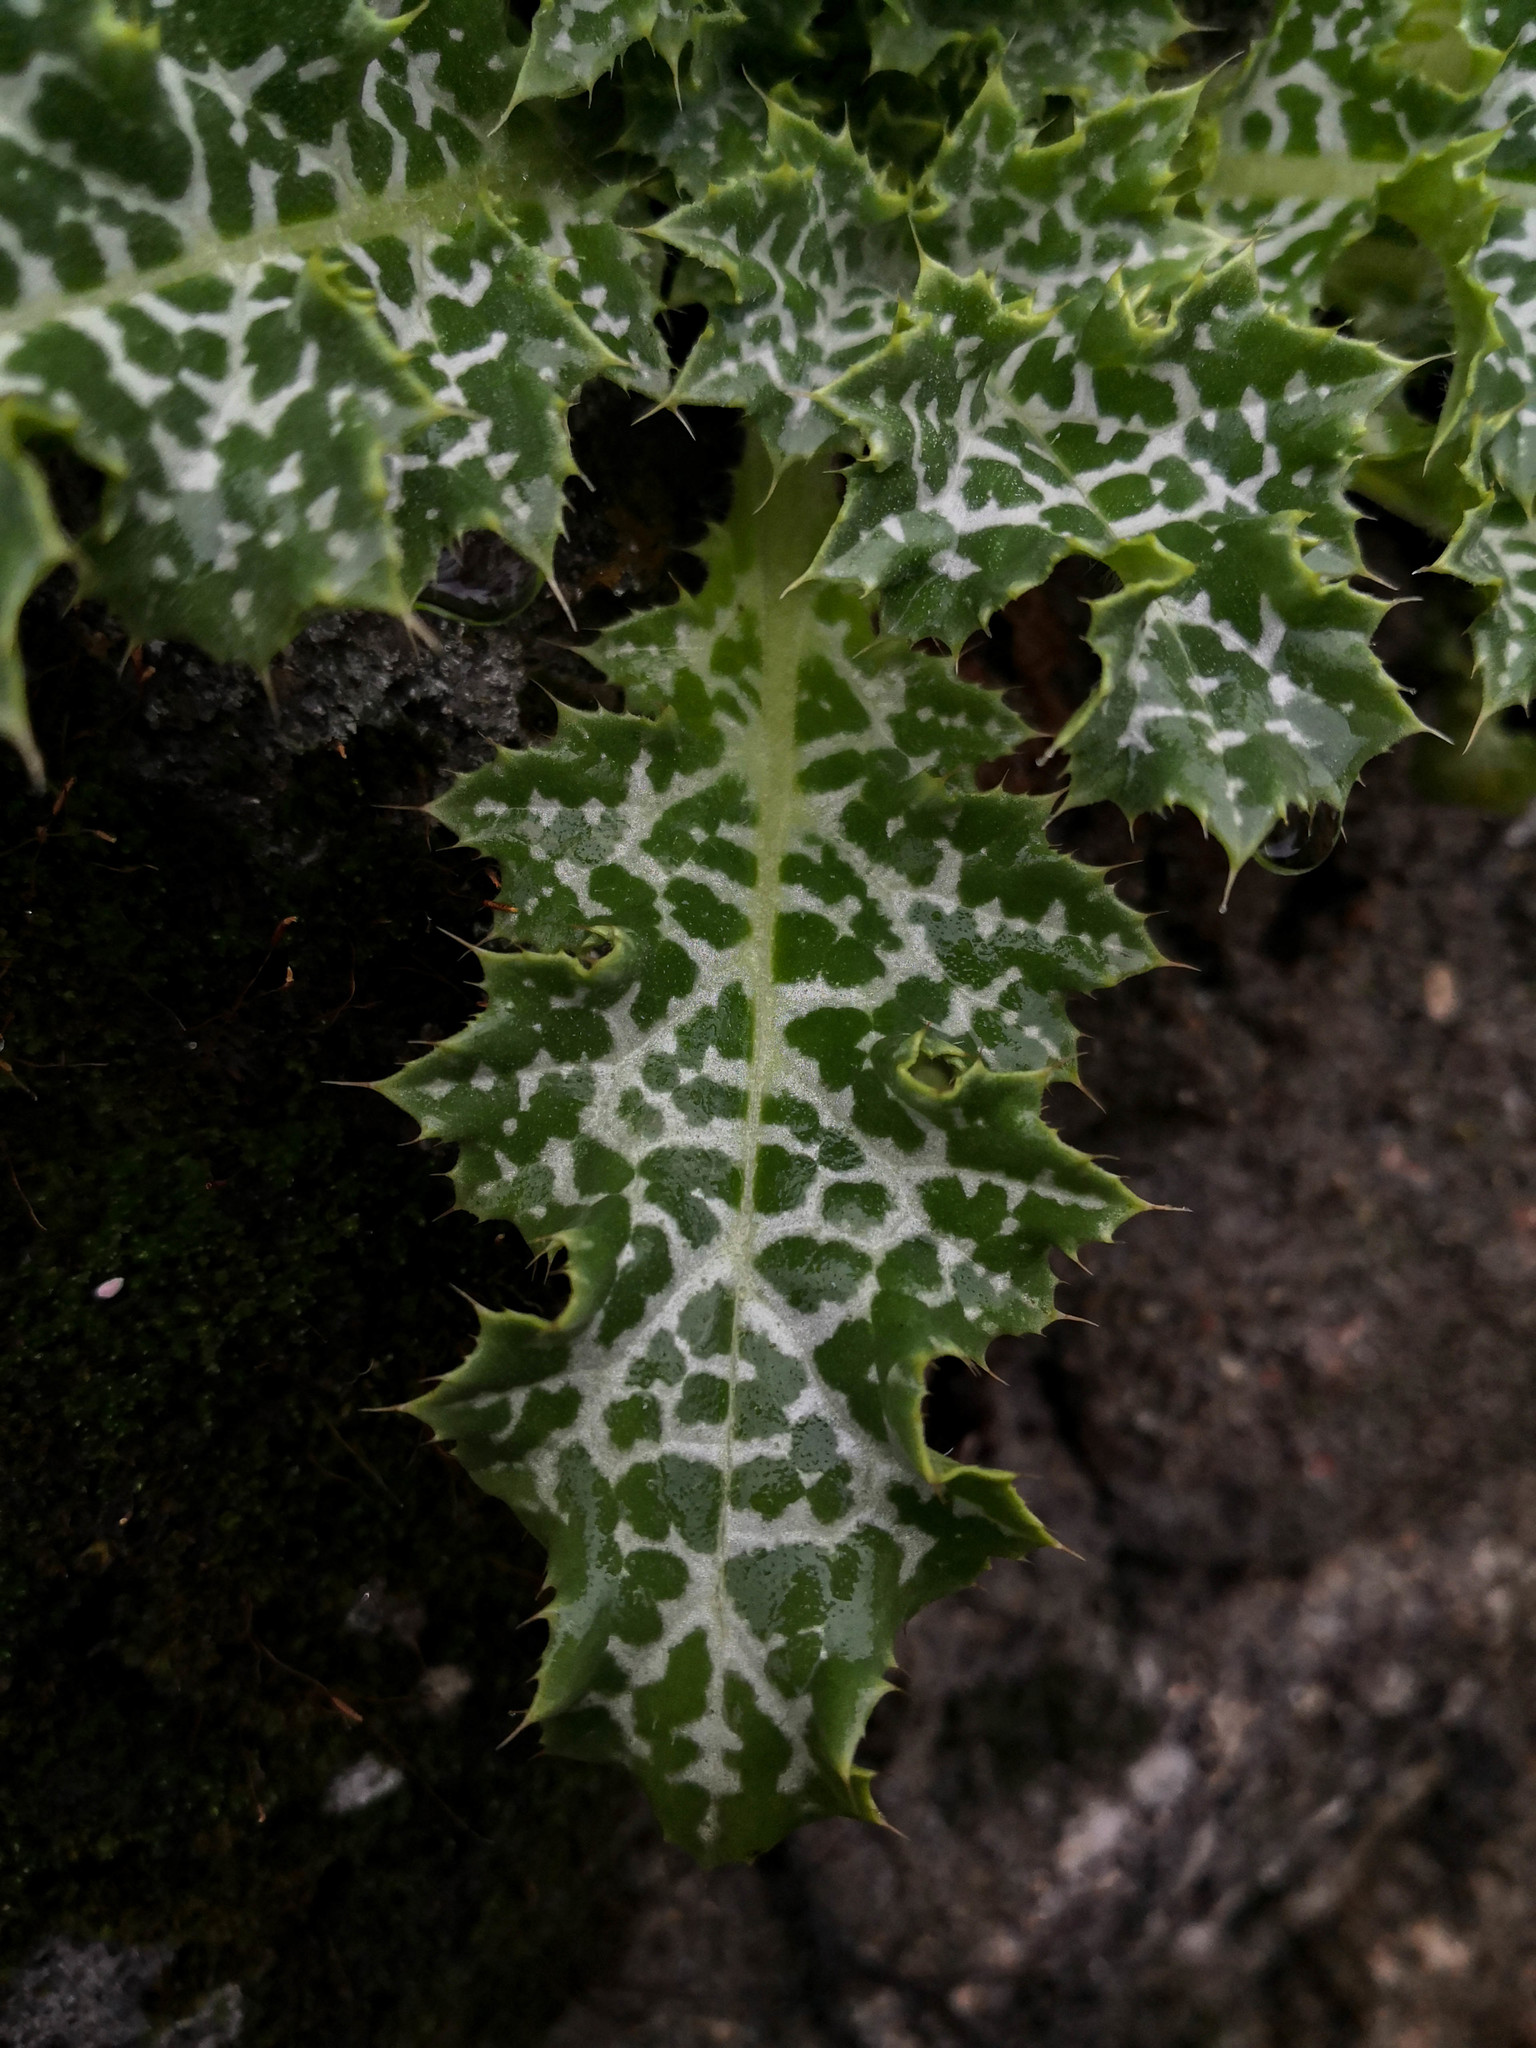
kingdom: Plantae
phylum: Tracheophyta
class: Magnoliopsida
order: Asterales
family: Asteraceae
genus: Silybum
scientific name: Silybum marianum
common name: Milk thistle
